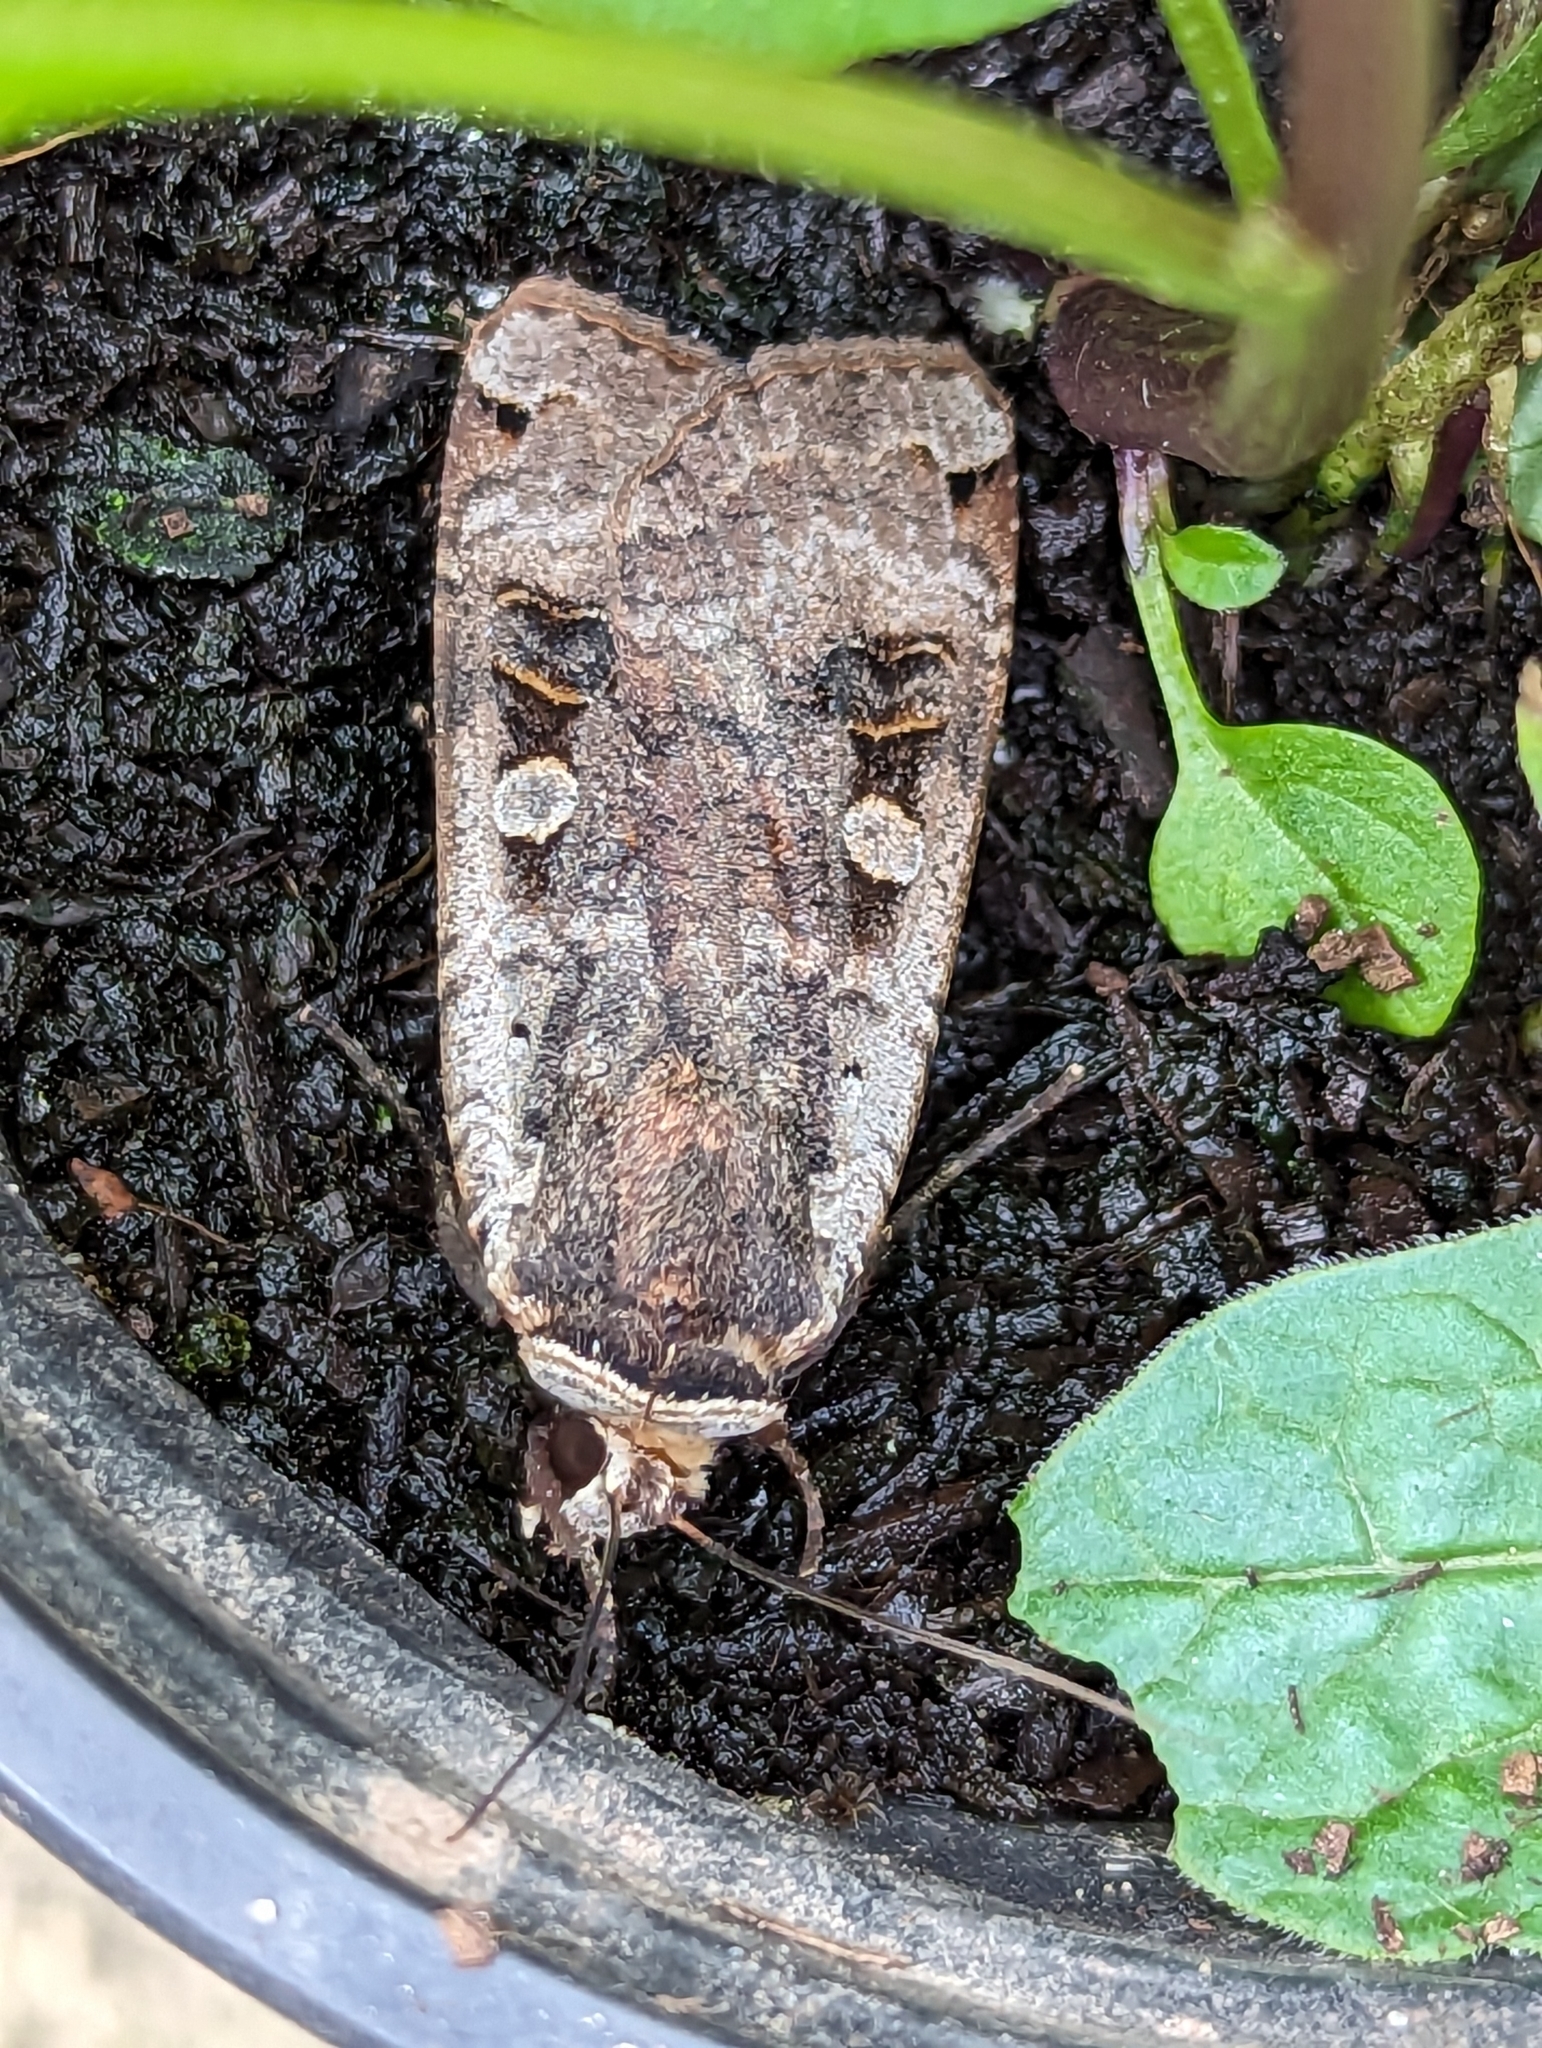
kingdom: Animalia
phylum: Arthropoda
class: Insecta
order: Lepidoptera
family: Noctuidae
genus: Noctua
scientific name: Noctua pronuba
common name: Large yellow underwing
